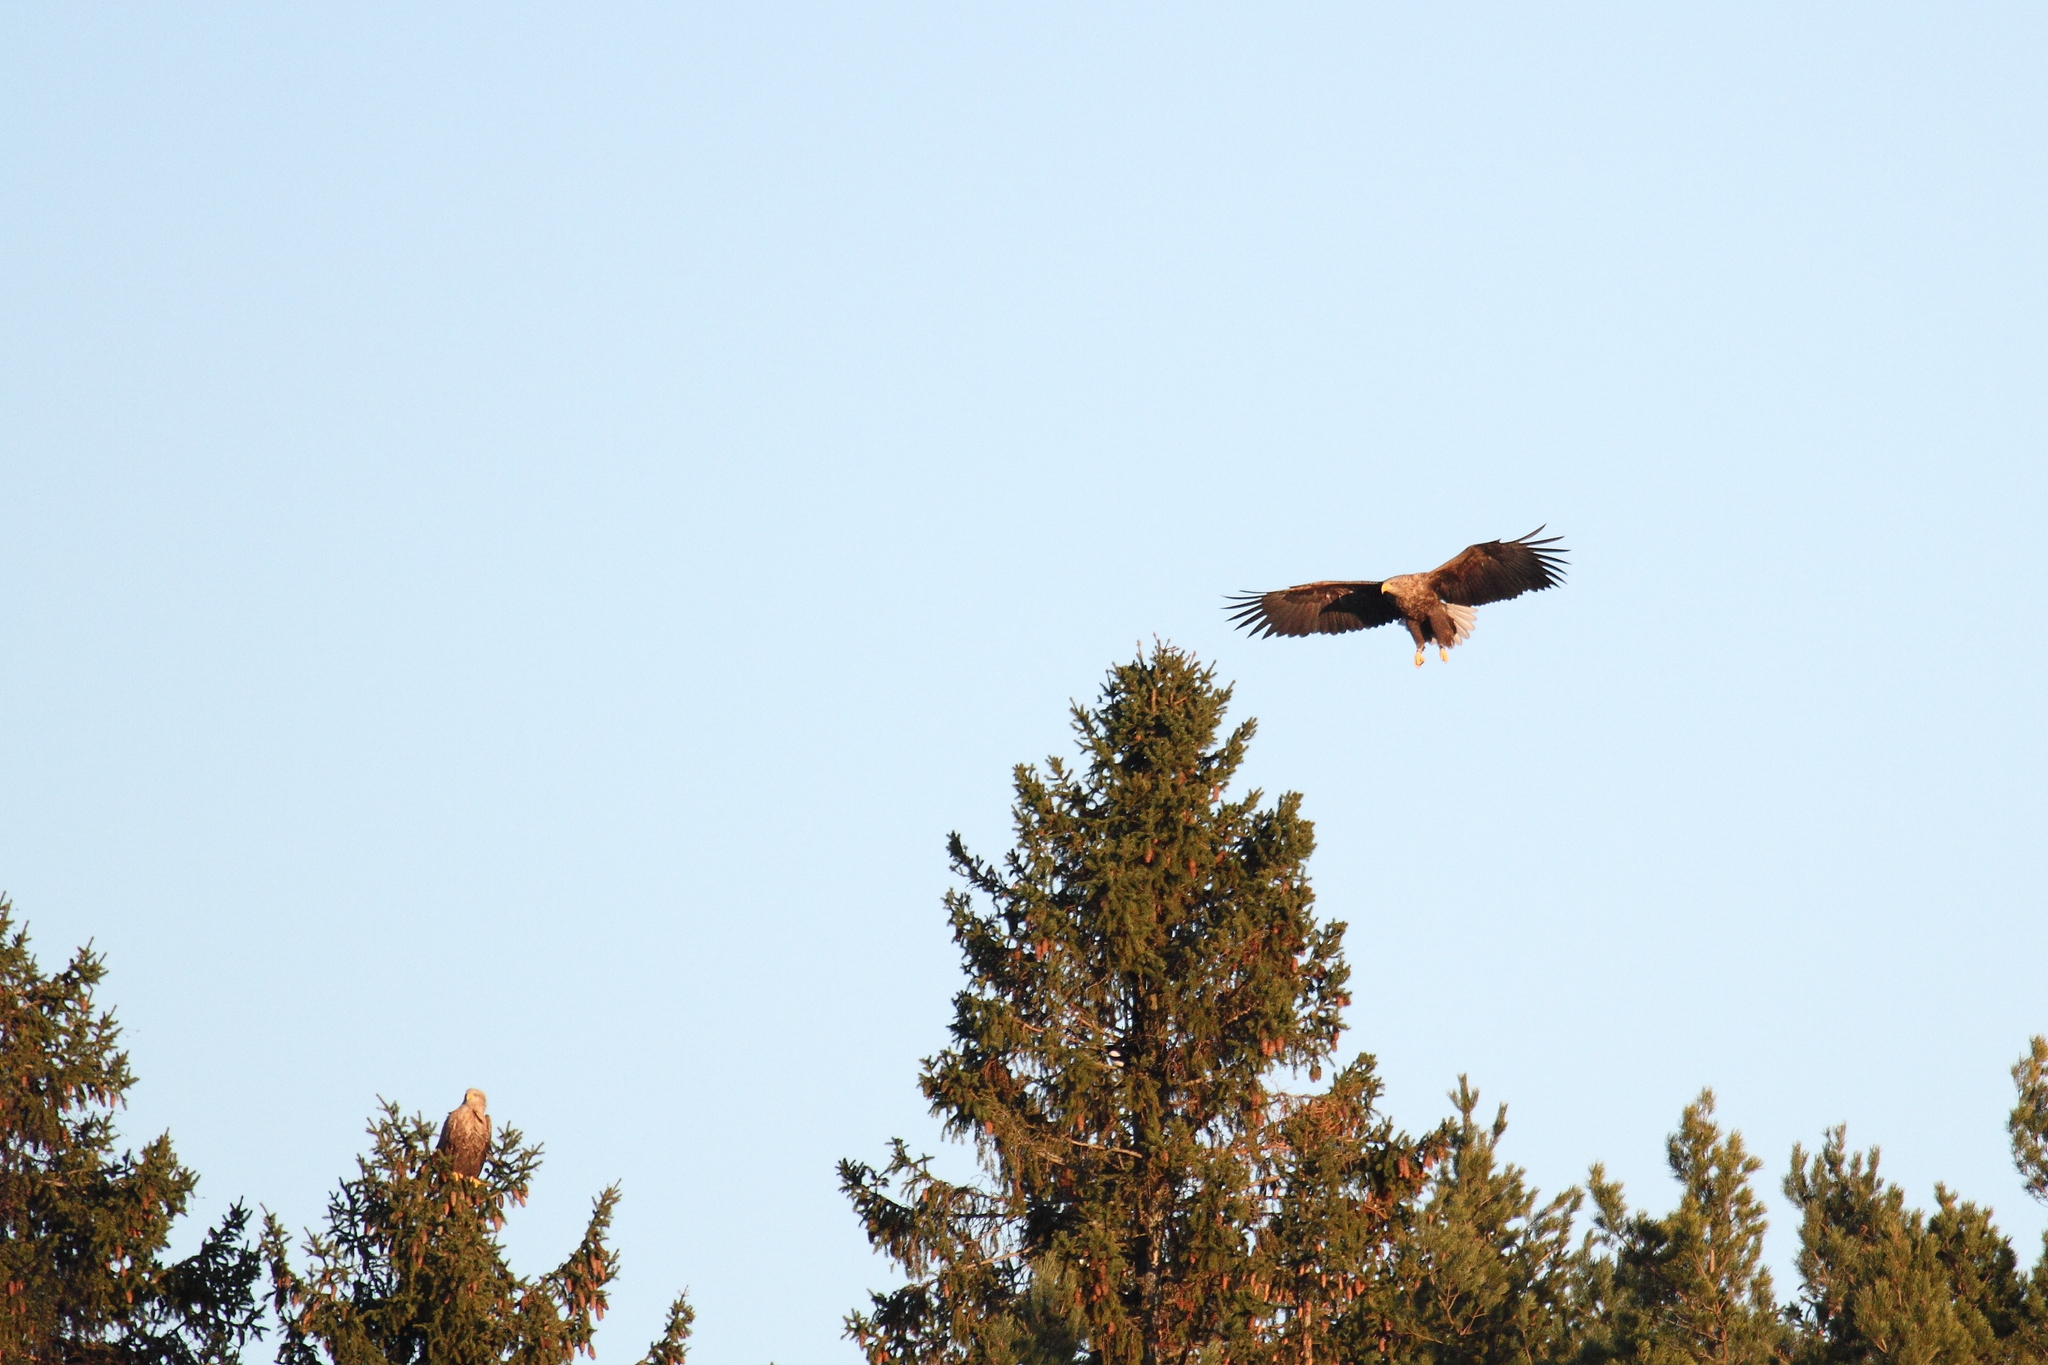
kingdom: Animalia
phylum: Chordata
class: Aves
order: Accipitriformes
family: Accipitridae
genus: Haliaeetus
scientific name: Haliaeetus albicilla
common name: White-tailed eagle
